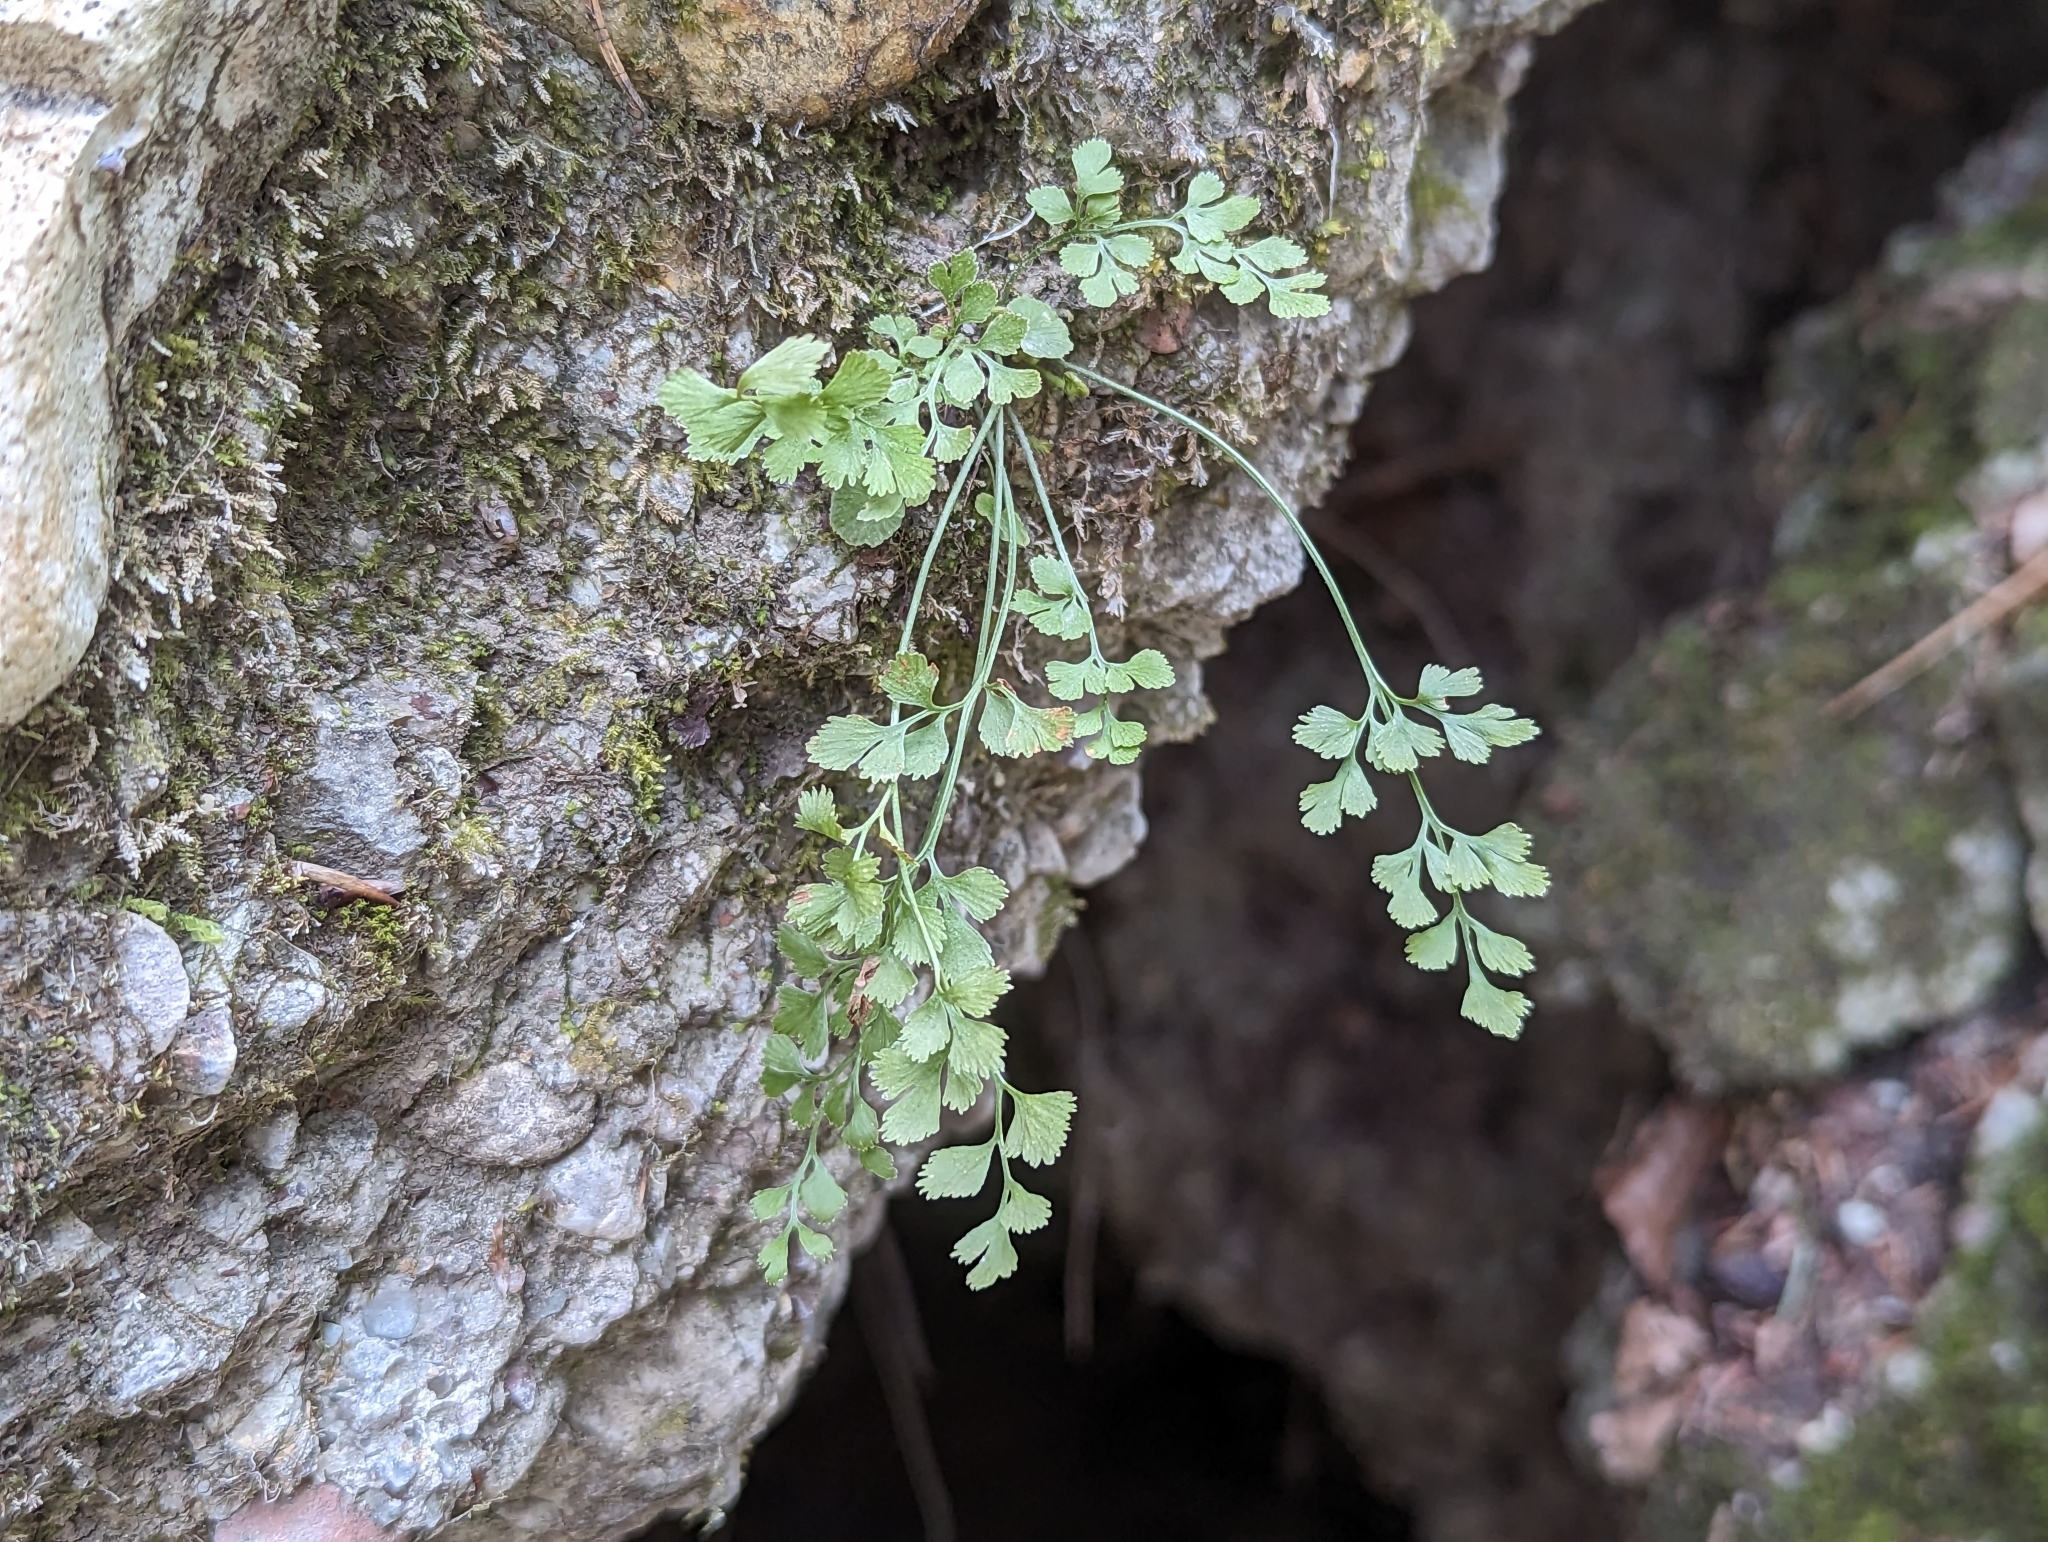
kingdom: Plantae
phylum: Tracheophyta
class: Polypodiopsida
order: Polypodiales
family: Aspleniaceae
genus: Asplenium
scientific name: Asplenium ruta-muraria
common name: Wall-rue
